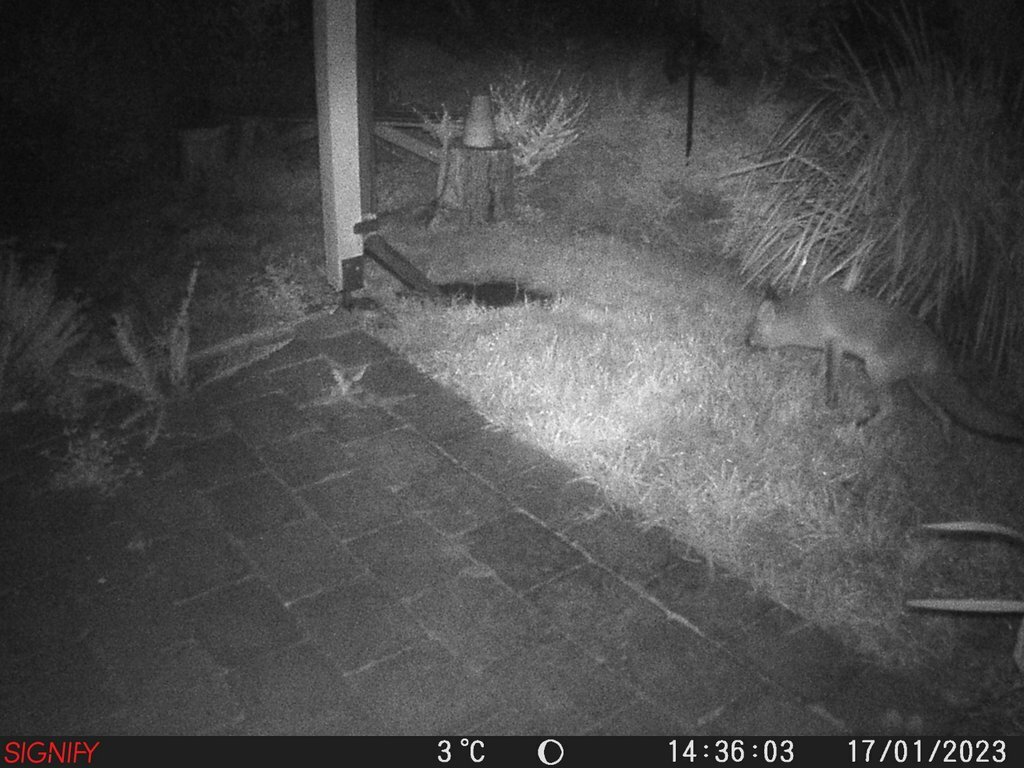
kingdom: Animalia
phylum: Chordata
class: Mammalia
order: Carnivora
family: Canidae
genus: Vulpes
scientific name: Vulpes vulpes
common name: Red fox
